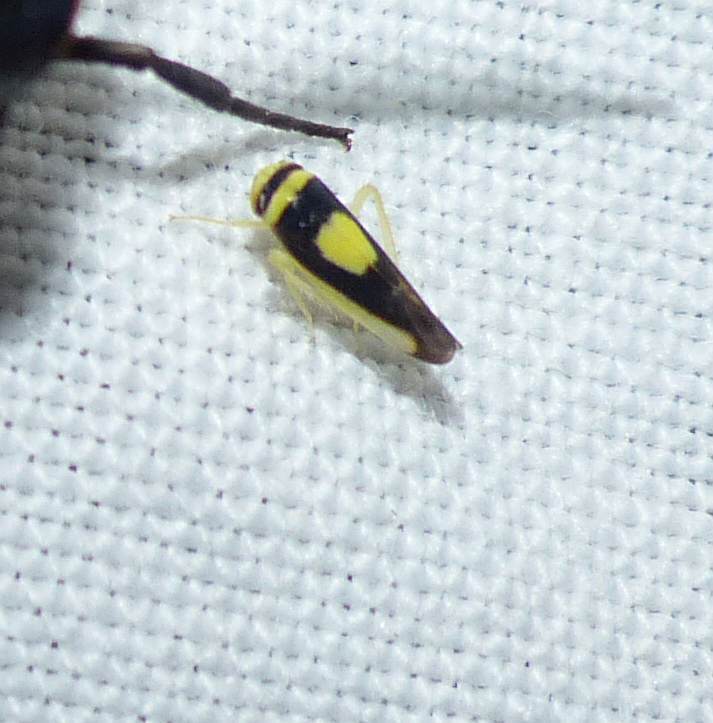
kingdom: Animalia
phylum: Arthropoda
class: Insecta
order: Hemiptera
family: Cicadellidae
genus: Colladonus
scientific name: Colladonus clitellarius
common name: The saddleback leafhopper
